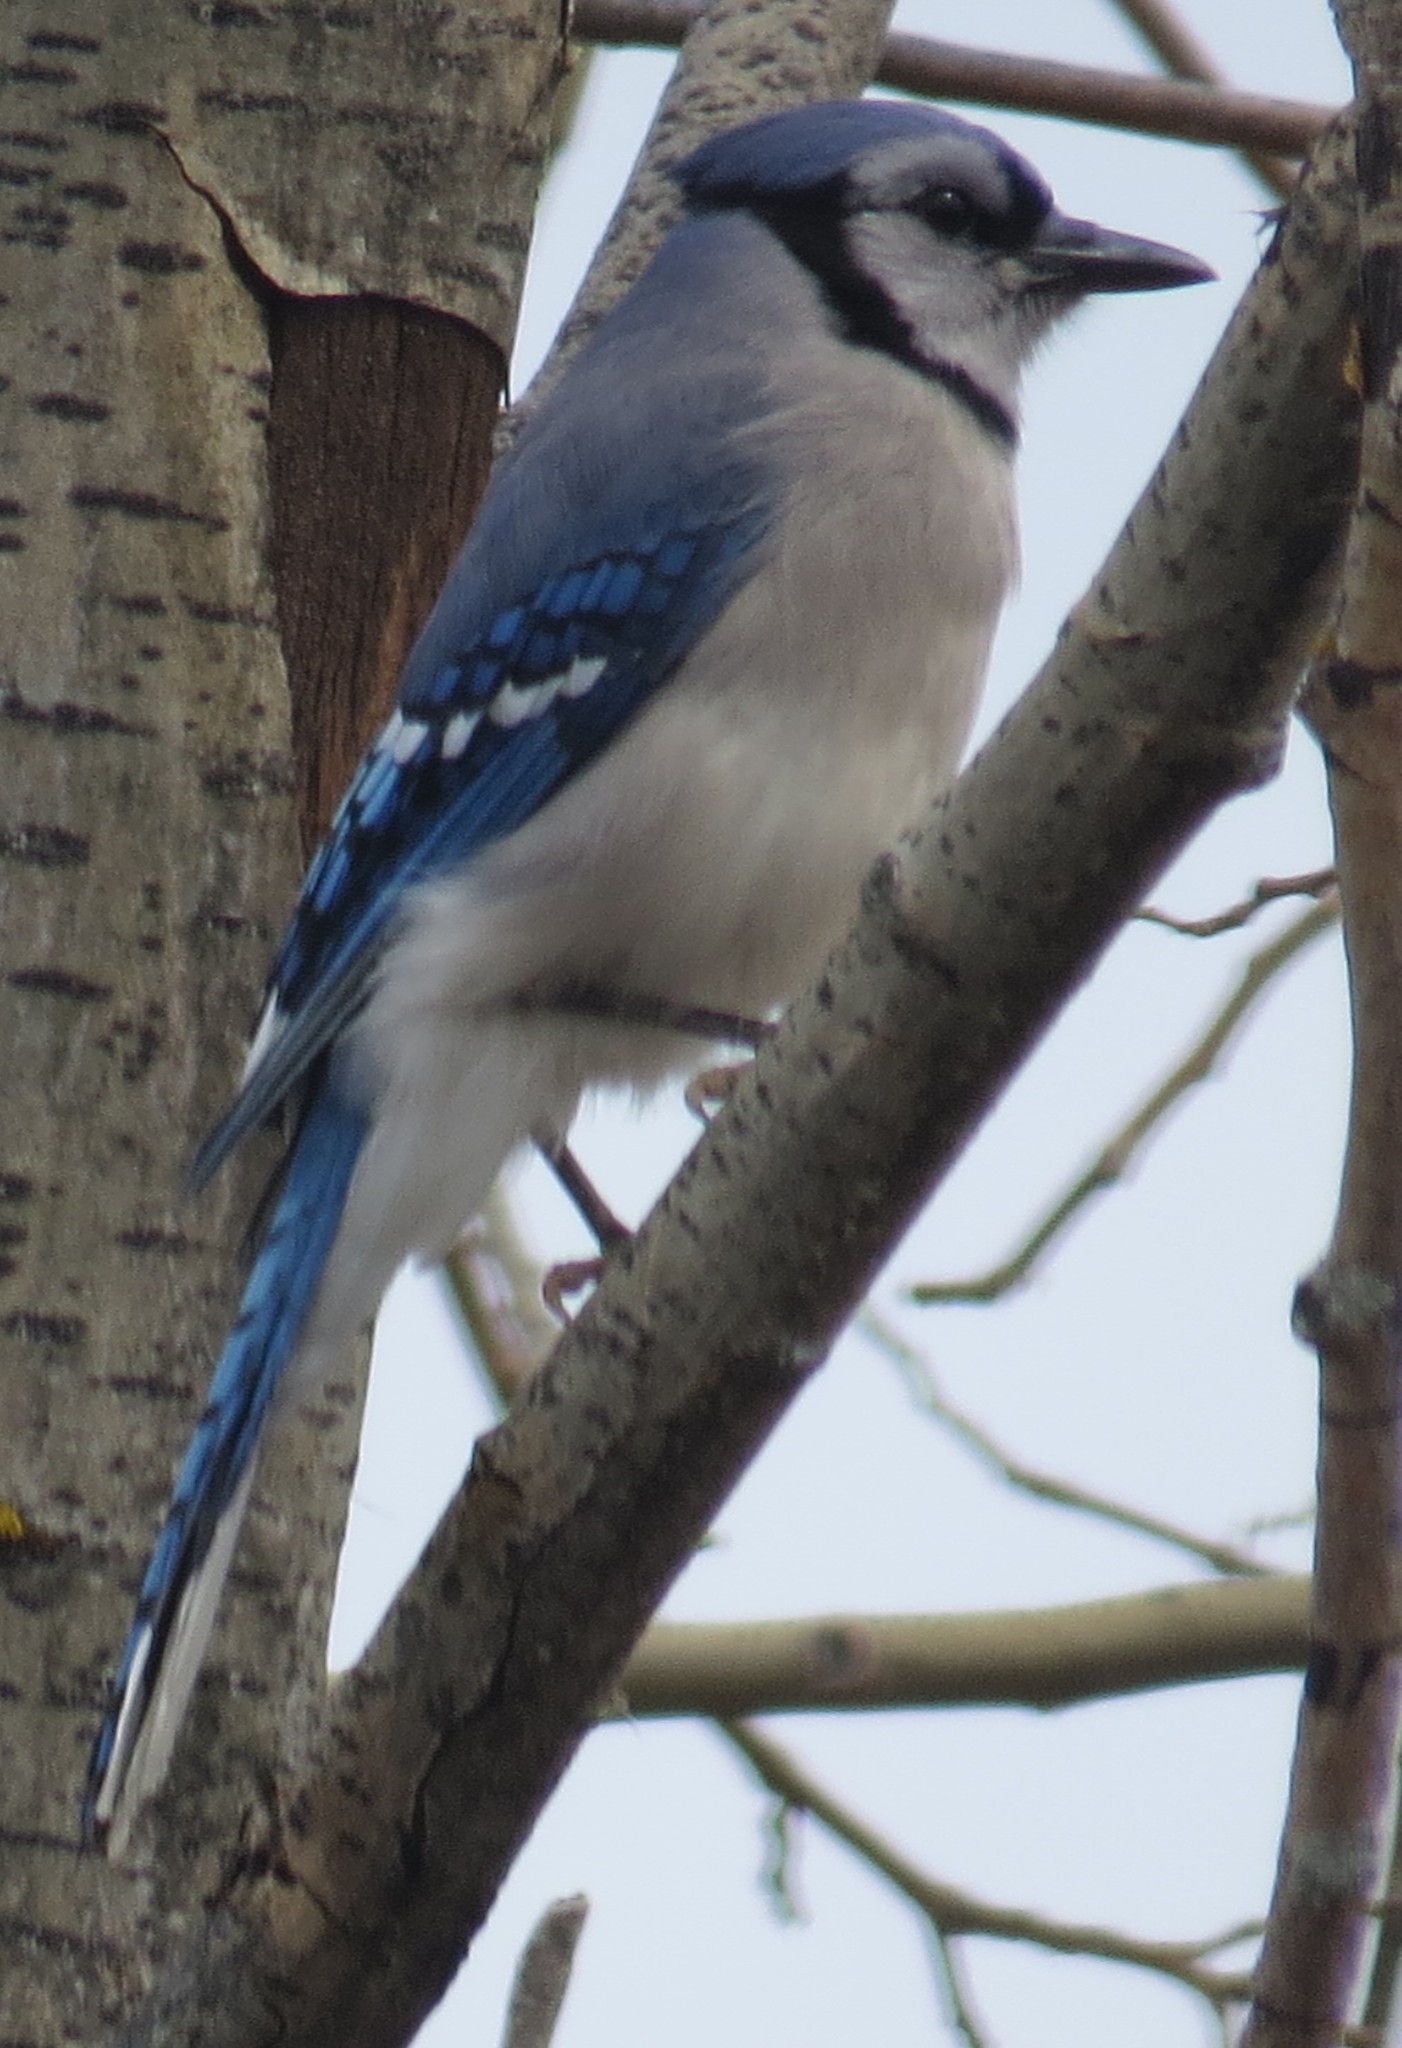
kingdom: Animalia
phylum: Chordata
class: Aves
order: Passeriformes
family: Corvidae
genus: Cyanocitta
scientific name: Cyanocitta cristata
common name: Blue jay
